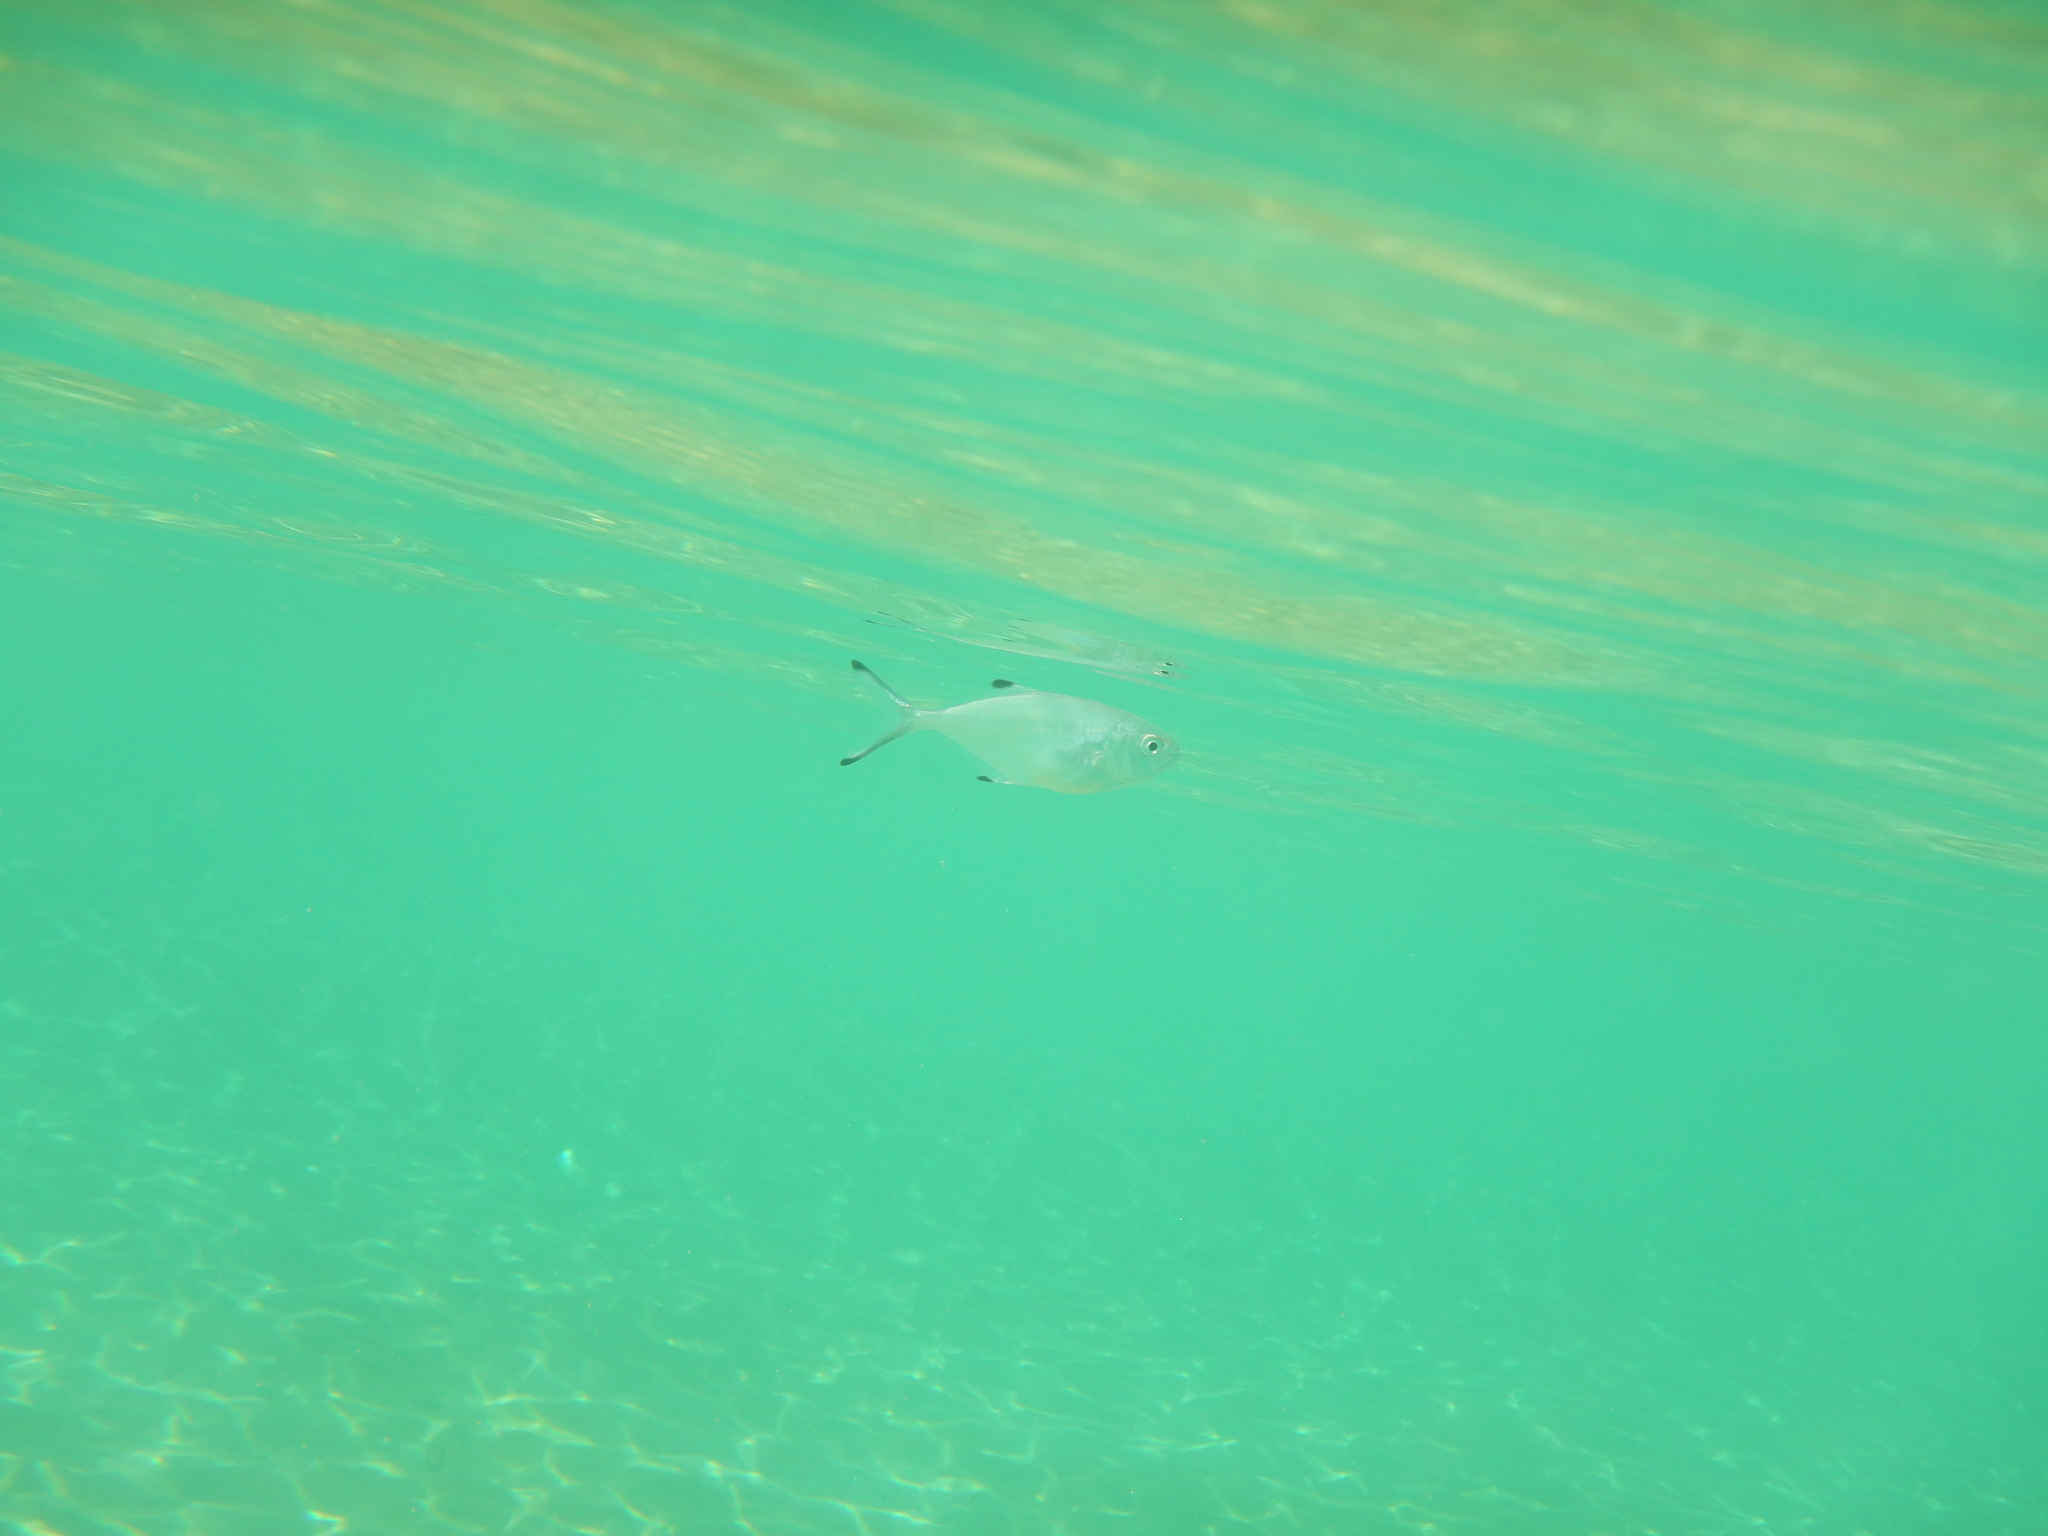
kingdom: Animalia
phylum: Chordata
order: Perciformes
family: Carangidae
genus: Trachinotus
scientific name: Trachinotus ovatus
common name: Pompano
